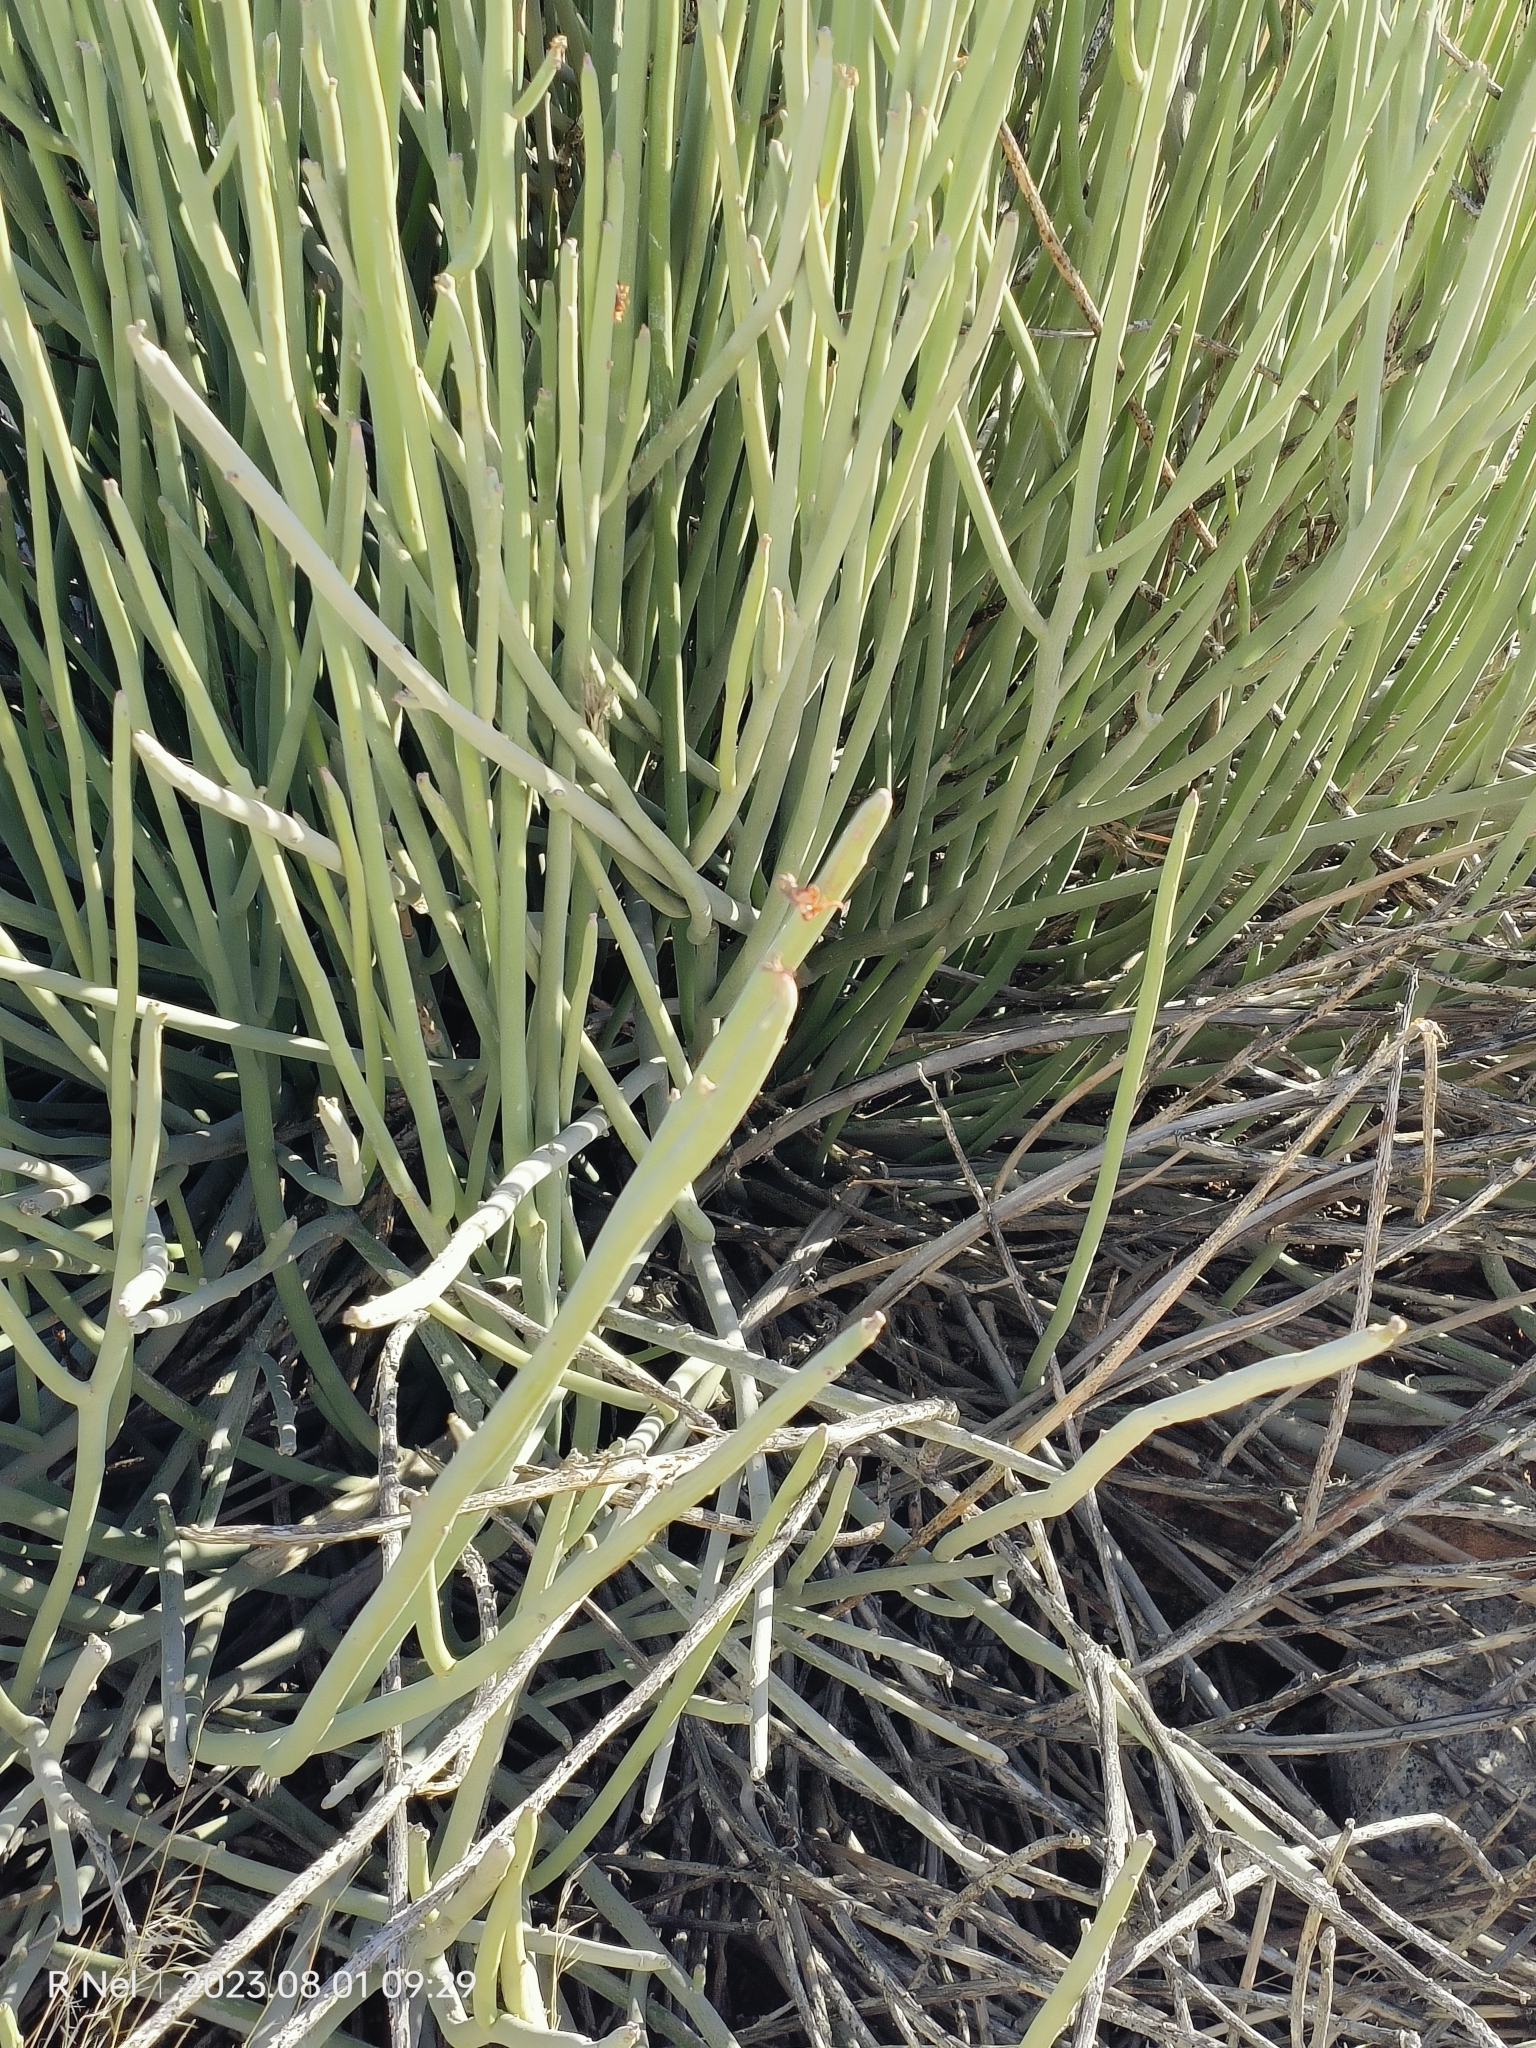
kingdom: Plantae
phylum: Tracheophyta
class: Magnoliopsida
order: Malpighiales
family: Euphorbiaceae
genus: Euphorbia
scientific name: Euphorbia gregaria
